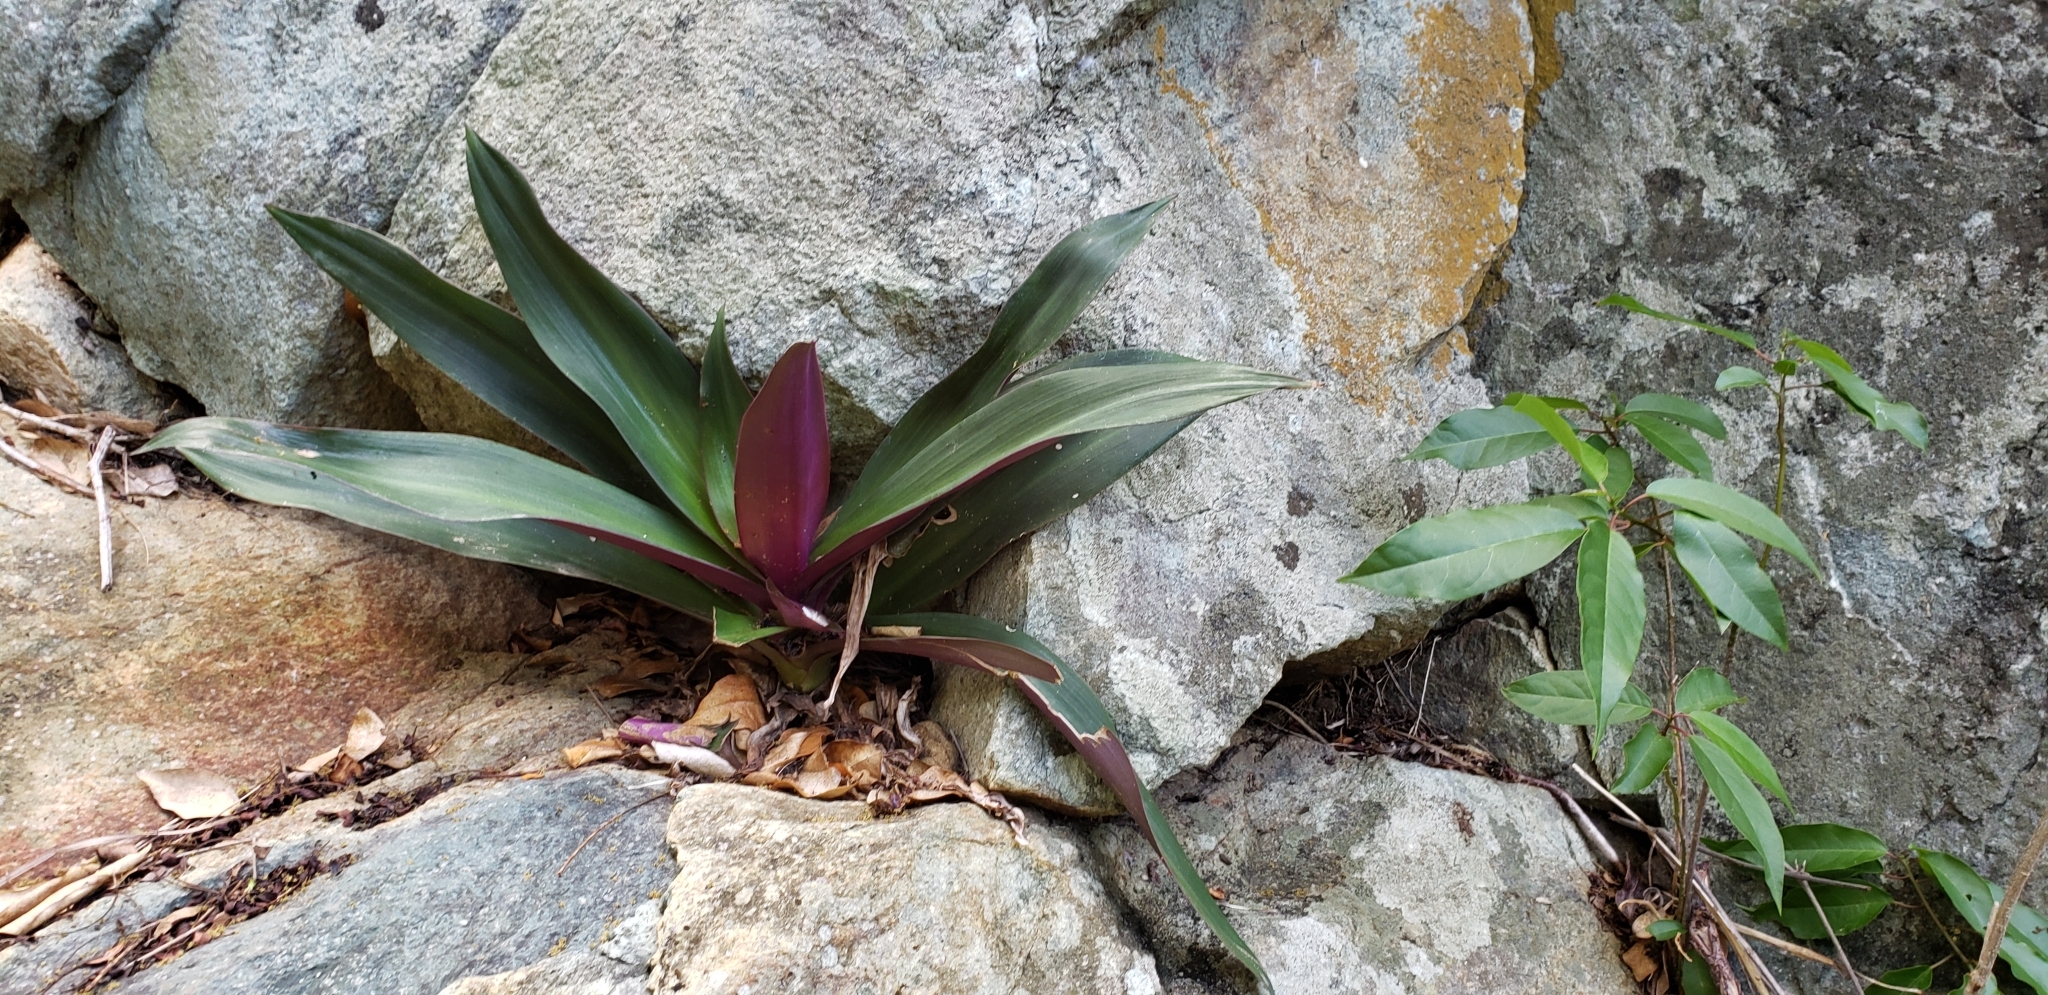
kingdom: Plantae
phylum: Tracheophyta
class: Liliopsida
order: Commelinales
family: Commelinaceae
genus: Tradescantia
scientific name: Tradescantia spathacea
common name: Boatlily
